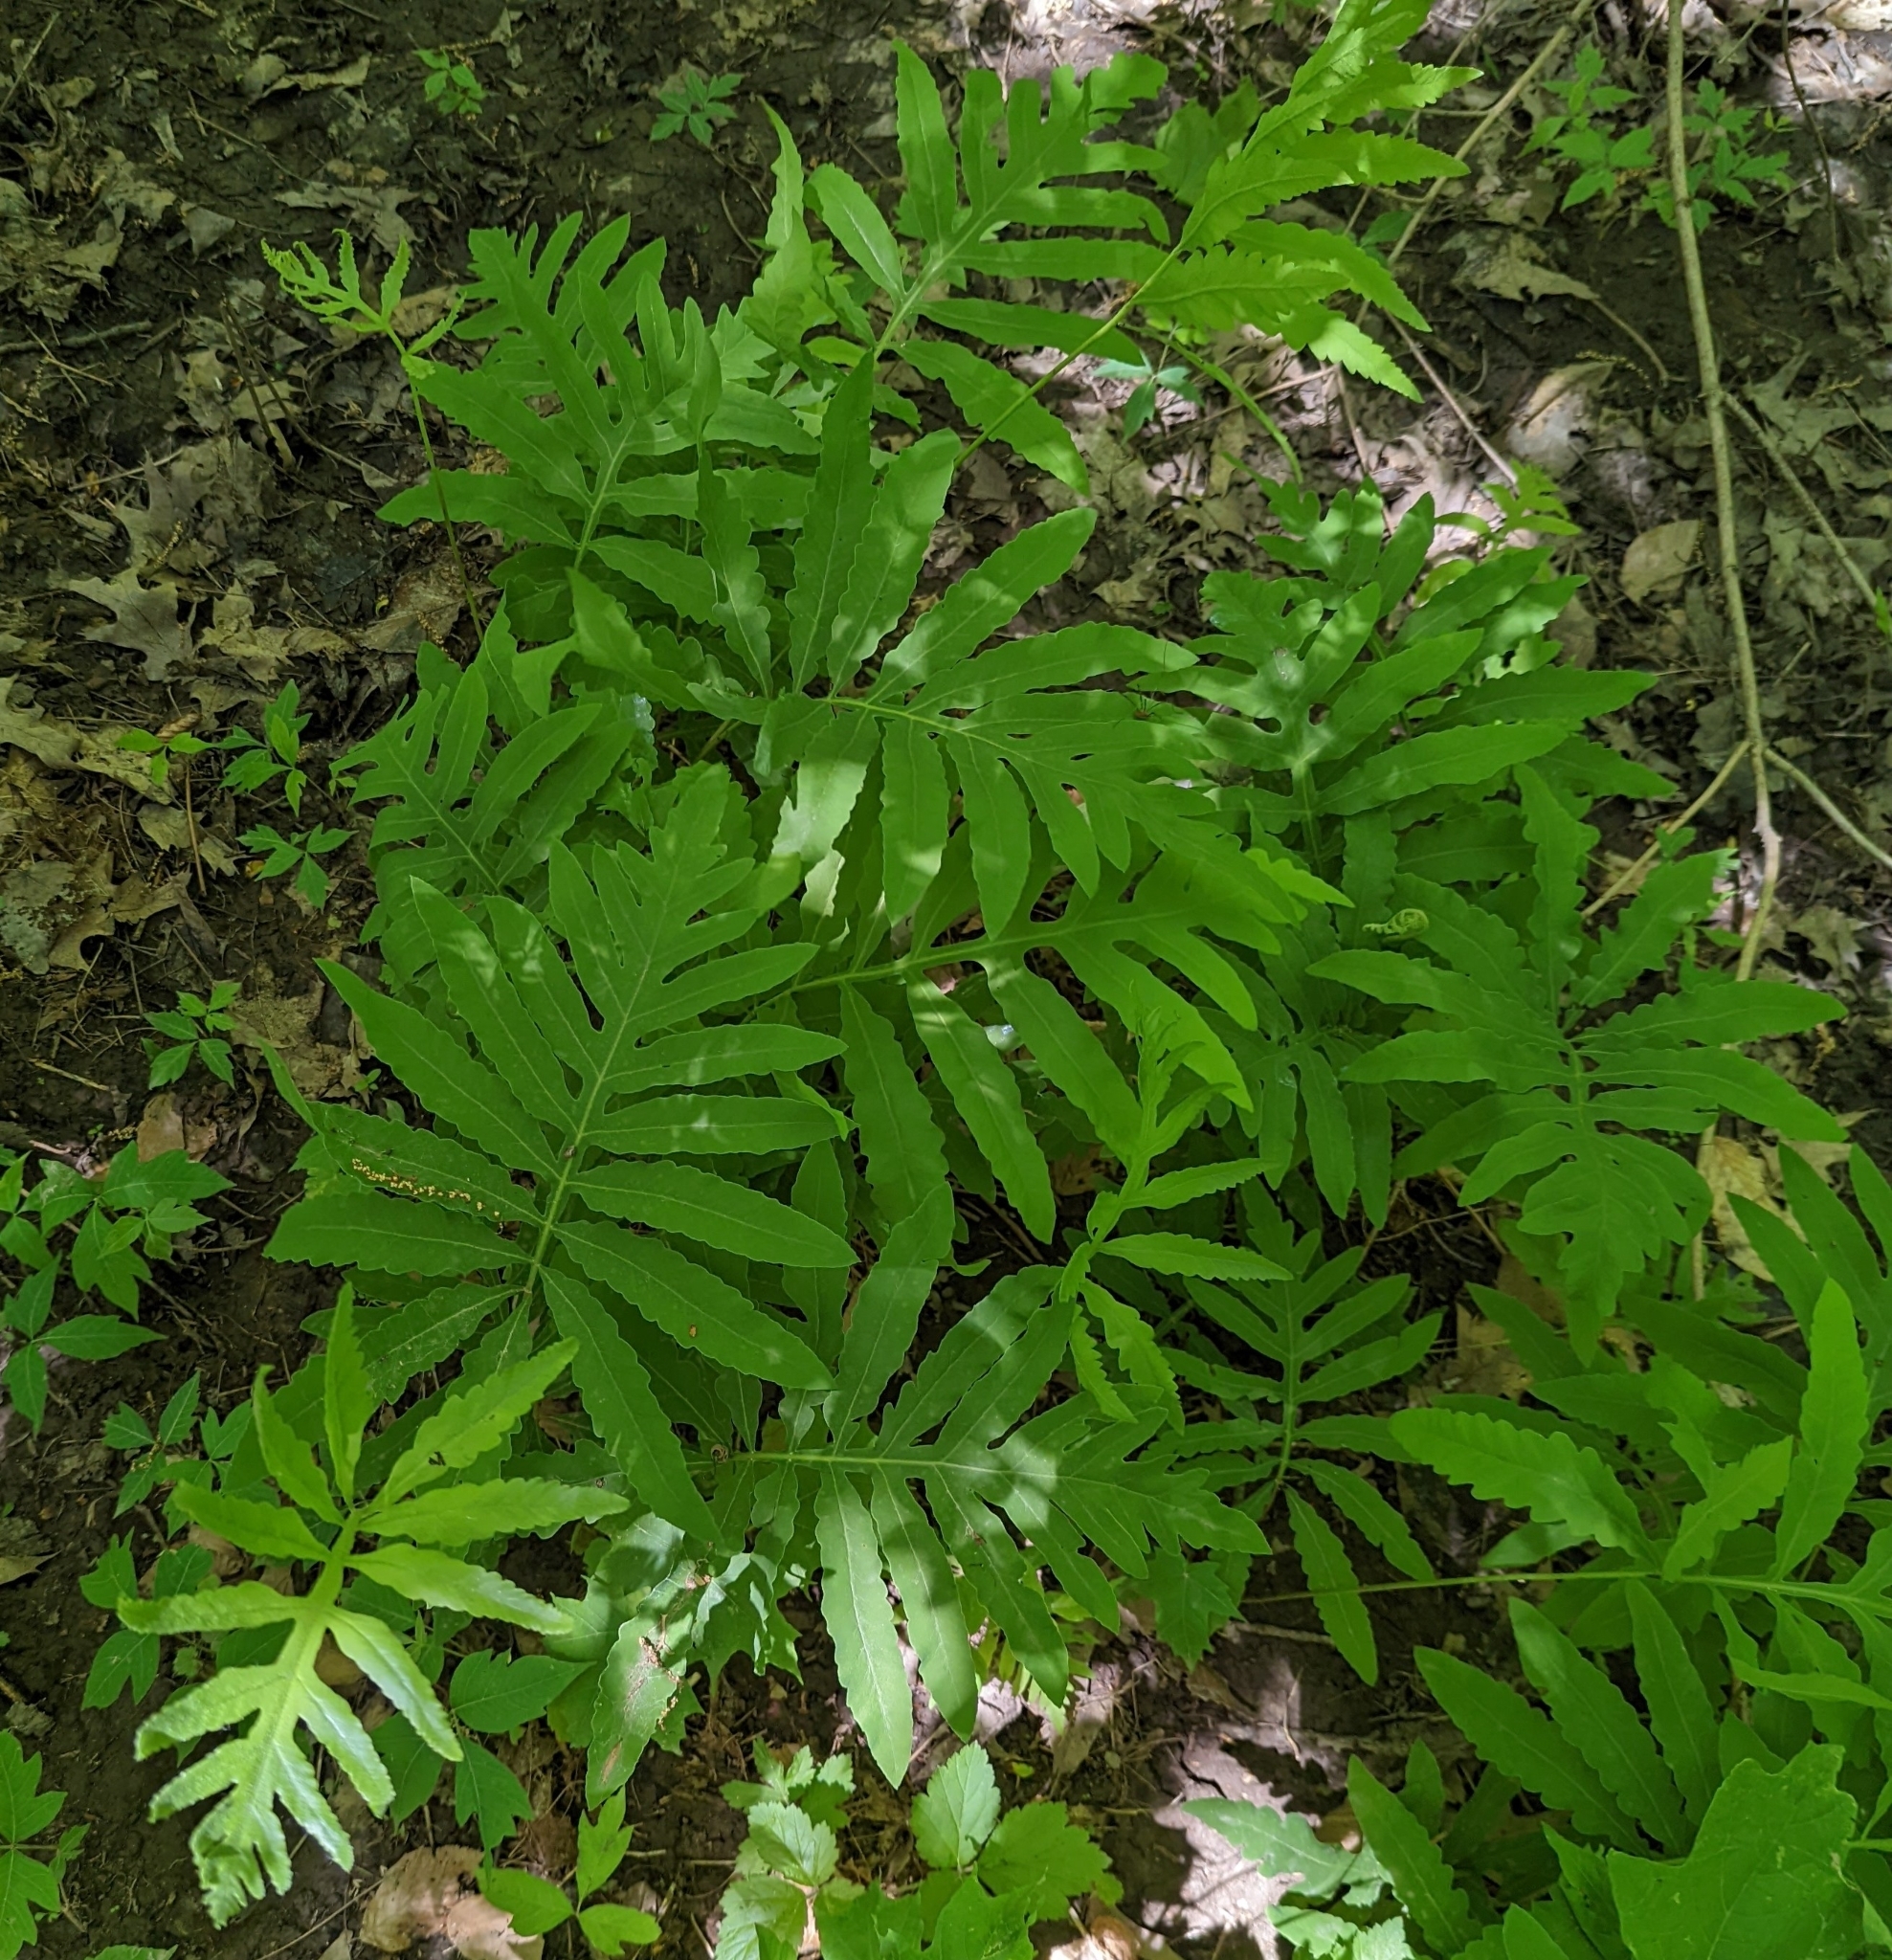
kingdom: Plantae
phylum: Tracheophyta
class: Polypodiopsida
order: Polypodiales
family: Onocleaceae
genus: Onoclea
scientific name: Onoclea sensibilis
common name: Sensitive fern
